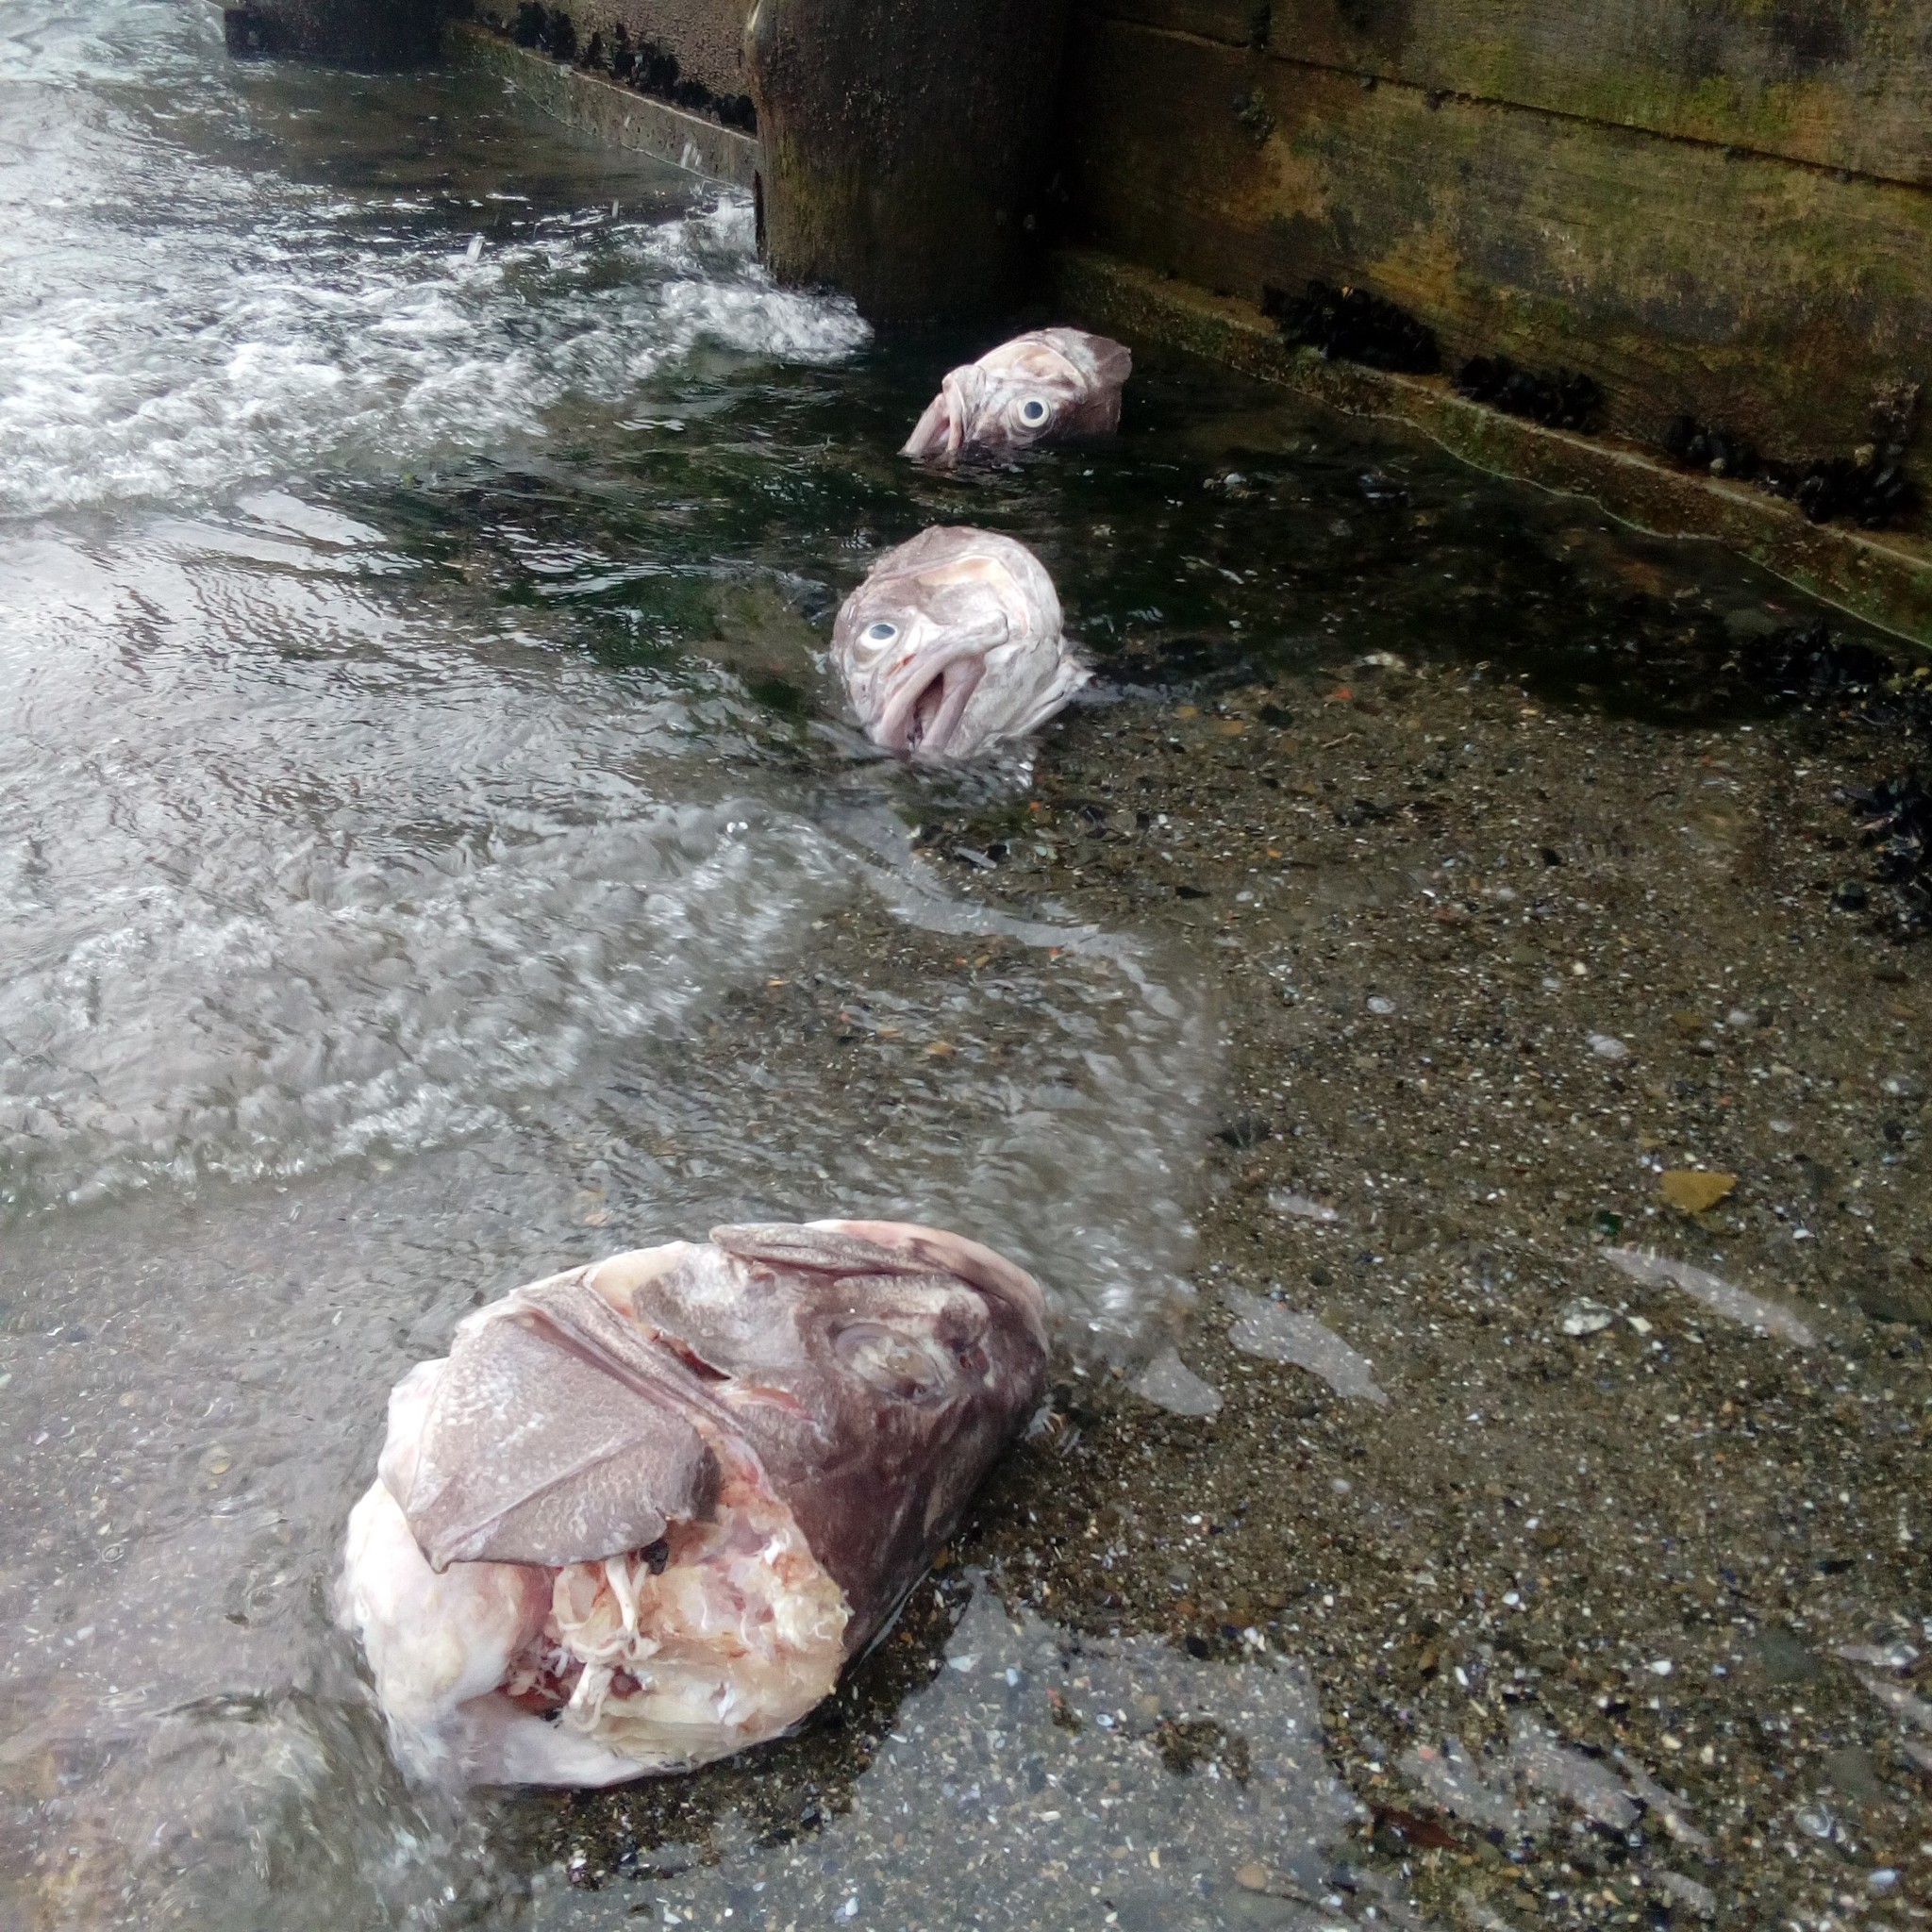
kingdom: Animalia
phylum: Chordata
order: Perciformes
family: Polyprionidae
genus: Polyprion
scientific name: Polyprion oxygeneios
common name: Hapuka
